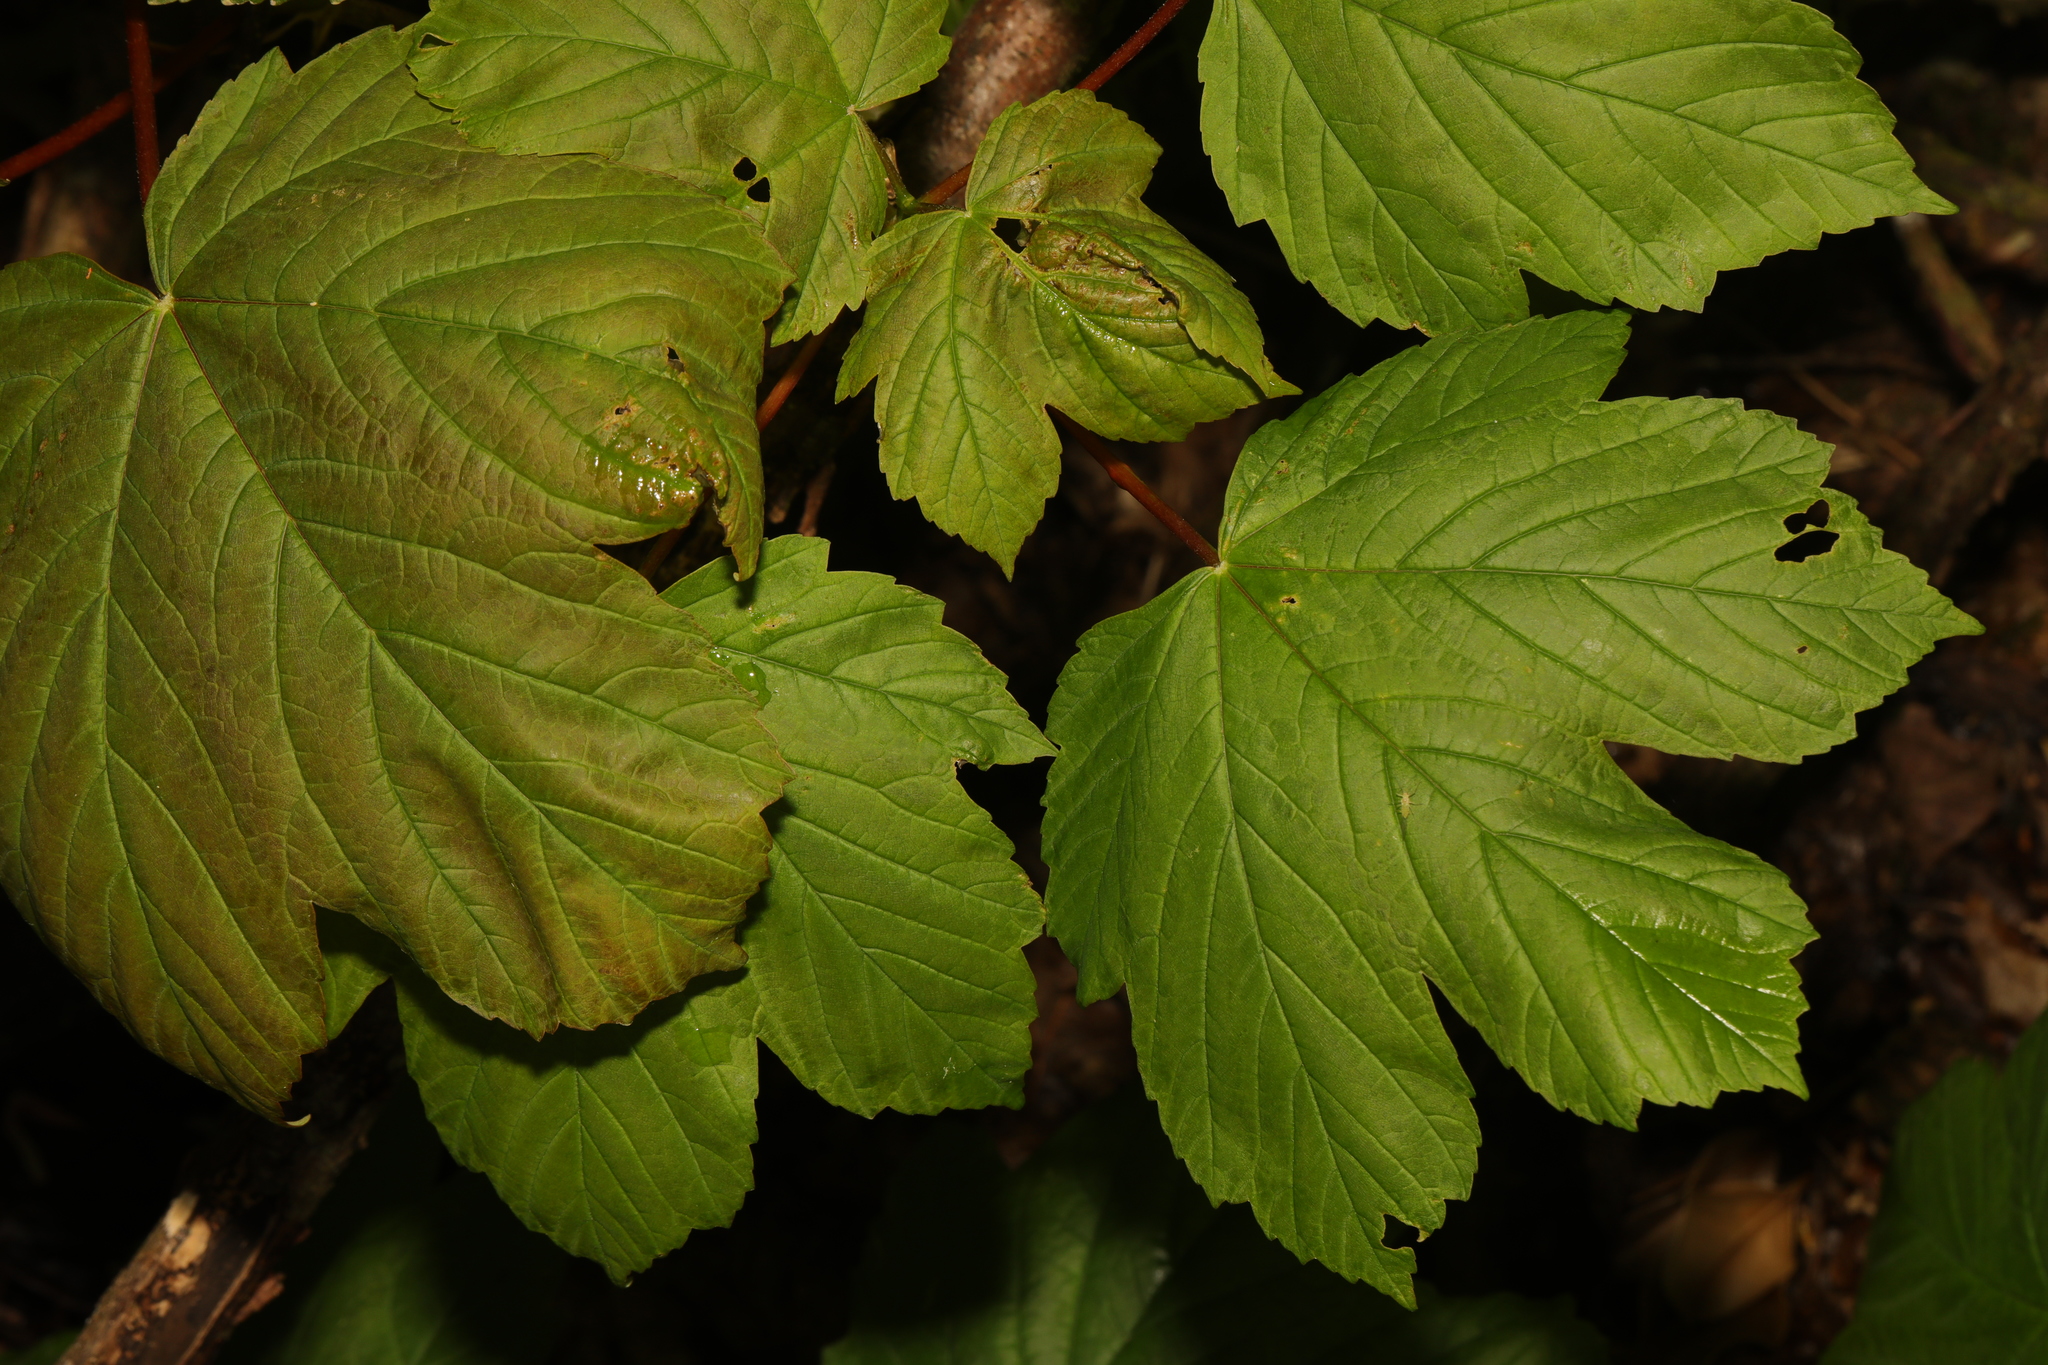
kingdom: Plantae
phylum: Tracheophyta
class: Magnoliopsida
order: Sapindales
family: Sapindaceae
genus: Acer
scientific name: Acer pseudoplatanus
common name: Sycamore
